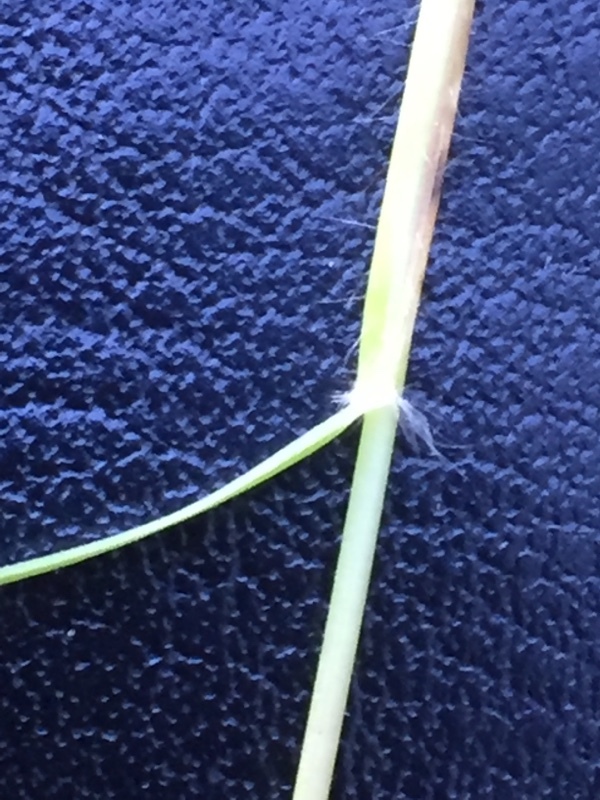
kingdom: Plantae
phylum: Tracheophyta
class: Liliopsida
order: Poales
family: Poaceae
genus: Danthonia
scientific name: Danthonia decumbens
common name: Common heathgrass
